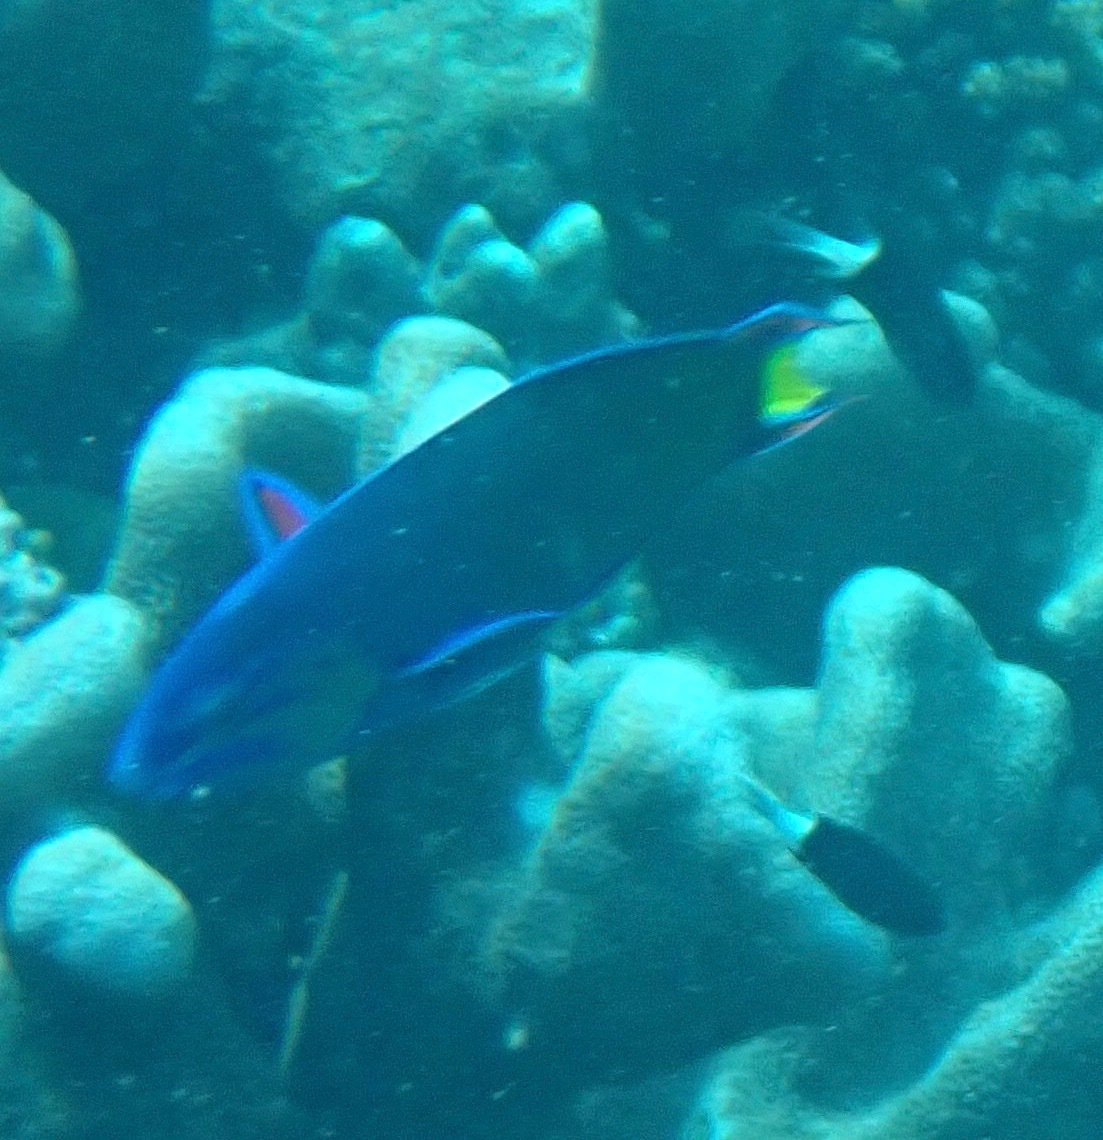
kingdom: Animalia
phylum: Chordata
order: Perciformes
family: Labridae
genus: Thalassoma
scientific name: Thalassoma lunare
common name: Blue wrasse
